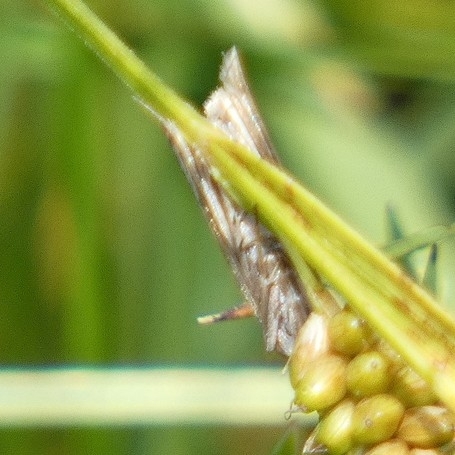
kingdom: Animalia
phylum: Arthropoda
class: Insecta
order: Lepidoptera
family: Crambidae
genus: Chrysoteuchia
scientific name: Chrysoteuchia culmella
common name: Garden grass-veneer
